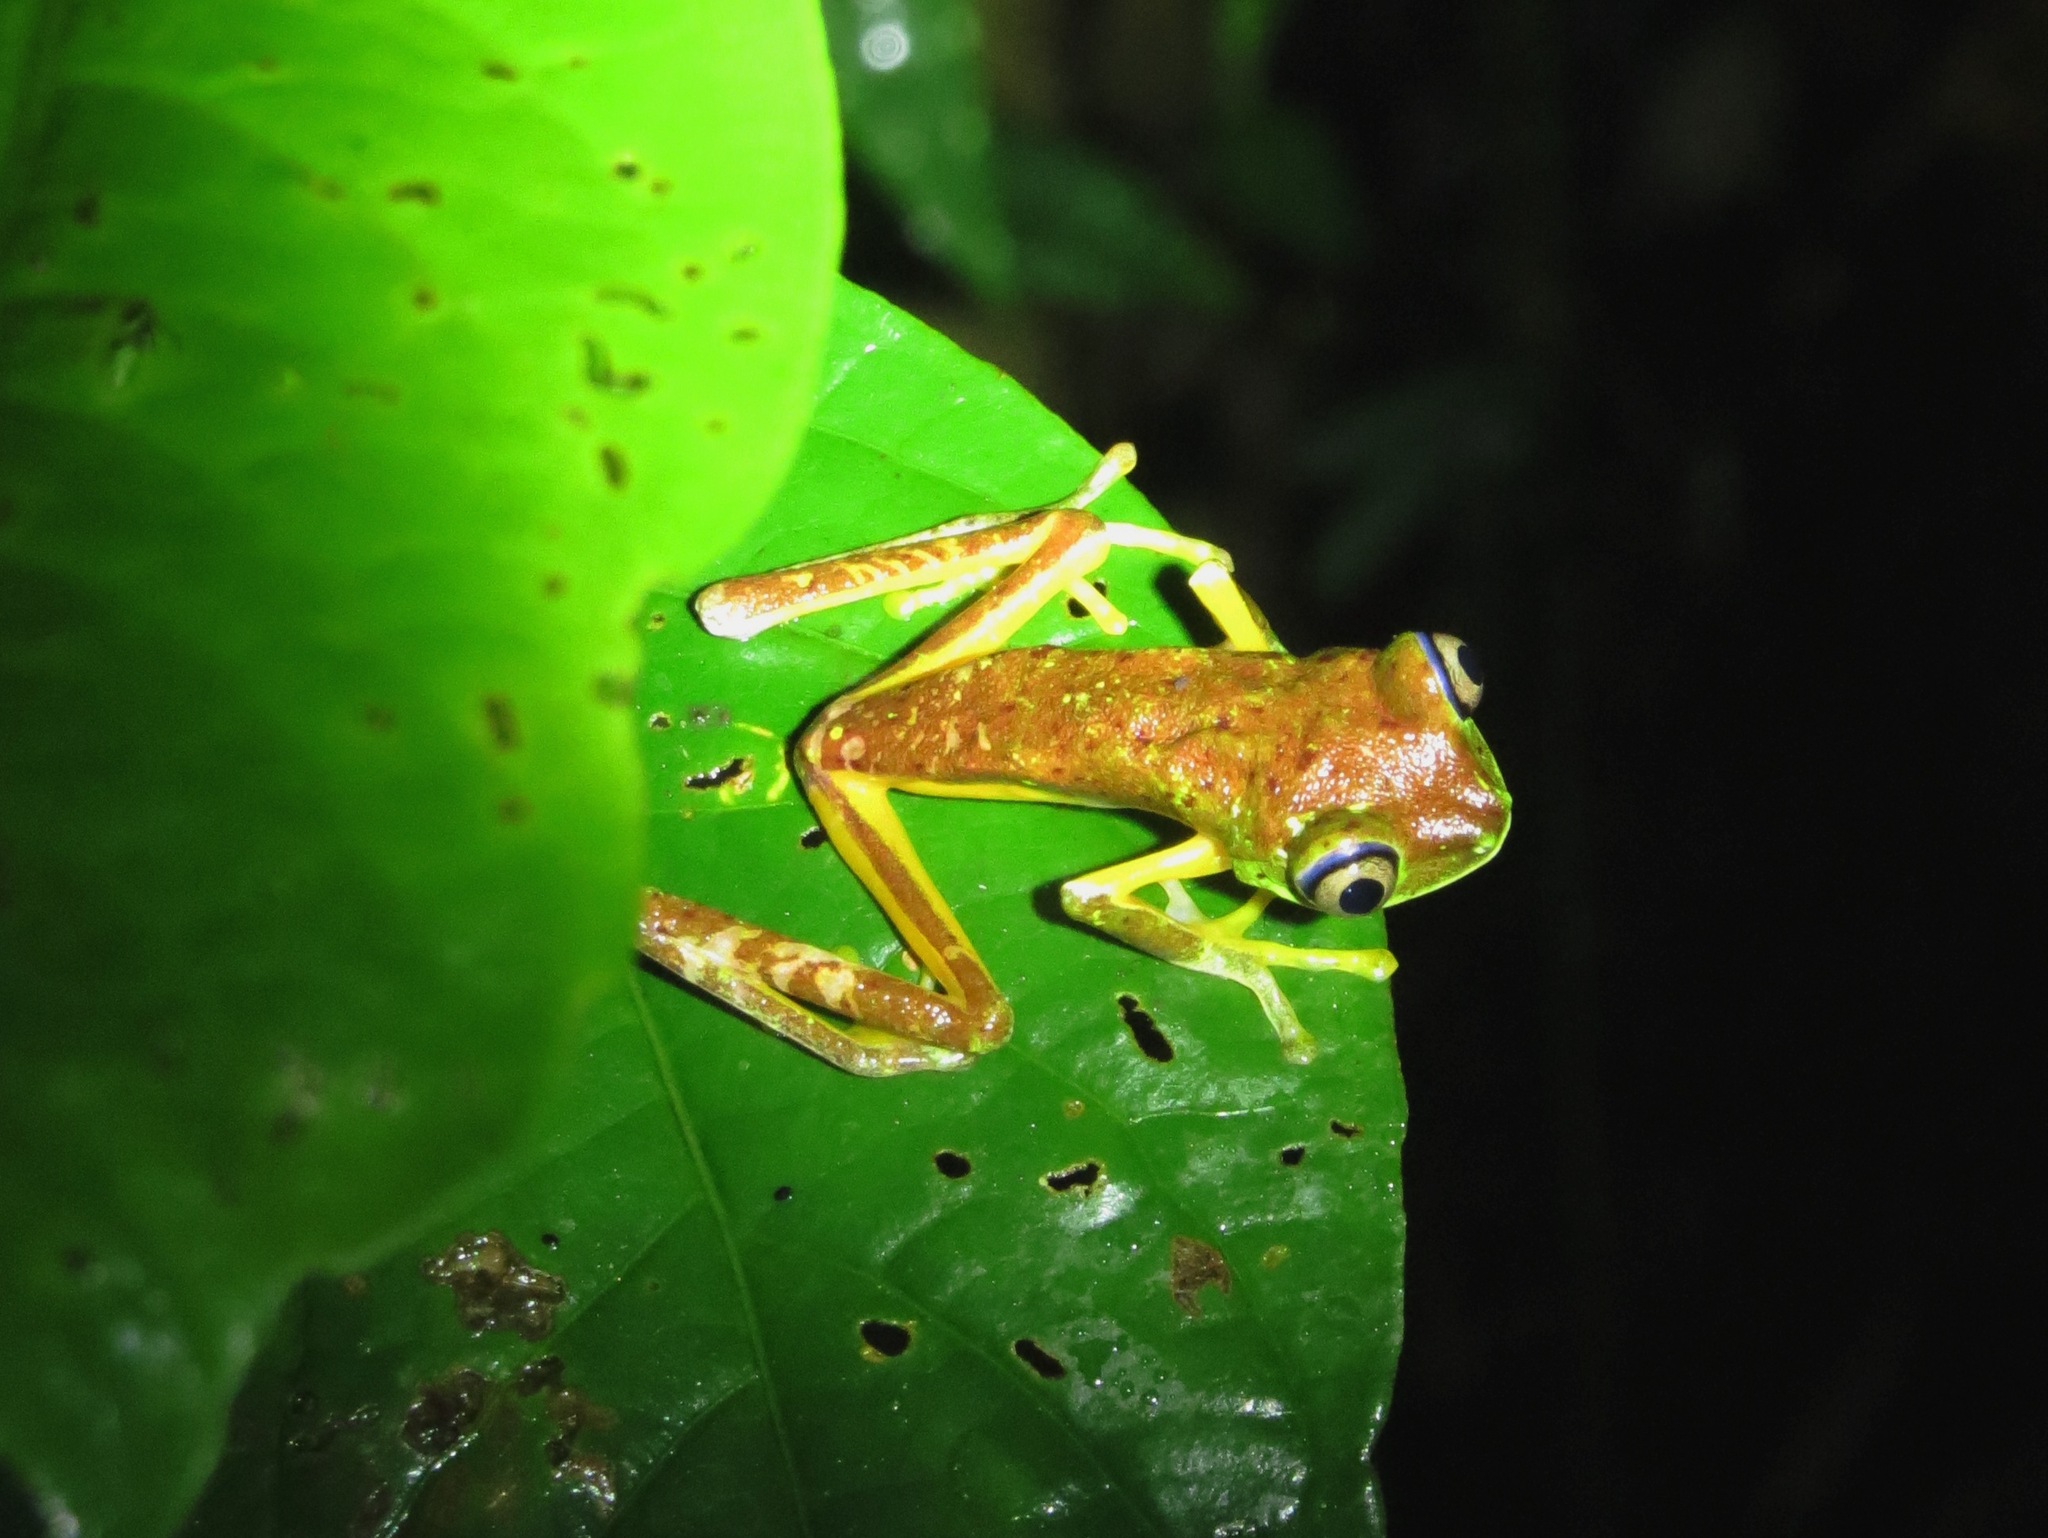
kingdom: Animalia
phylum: Chordata
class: Amphibia
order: Anura
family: Phyllomedusidae
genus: Agalychnis
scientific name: Agalychnis lemur
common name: Lemur leaf frog
